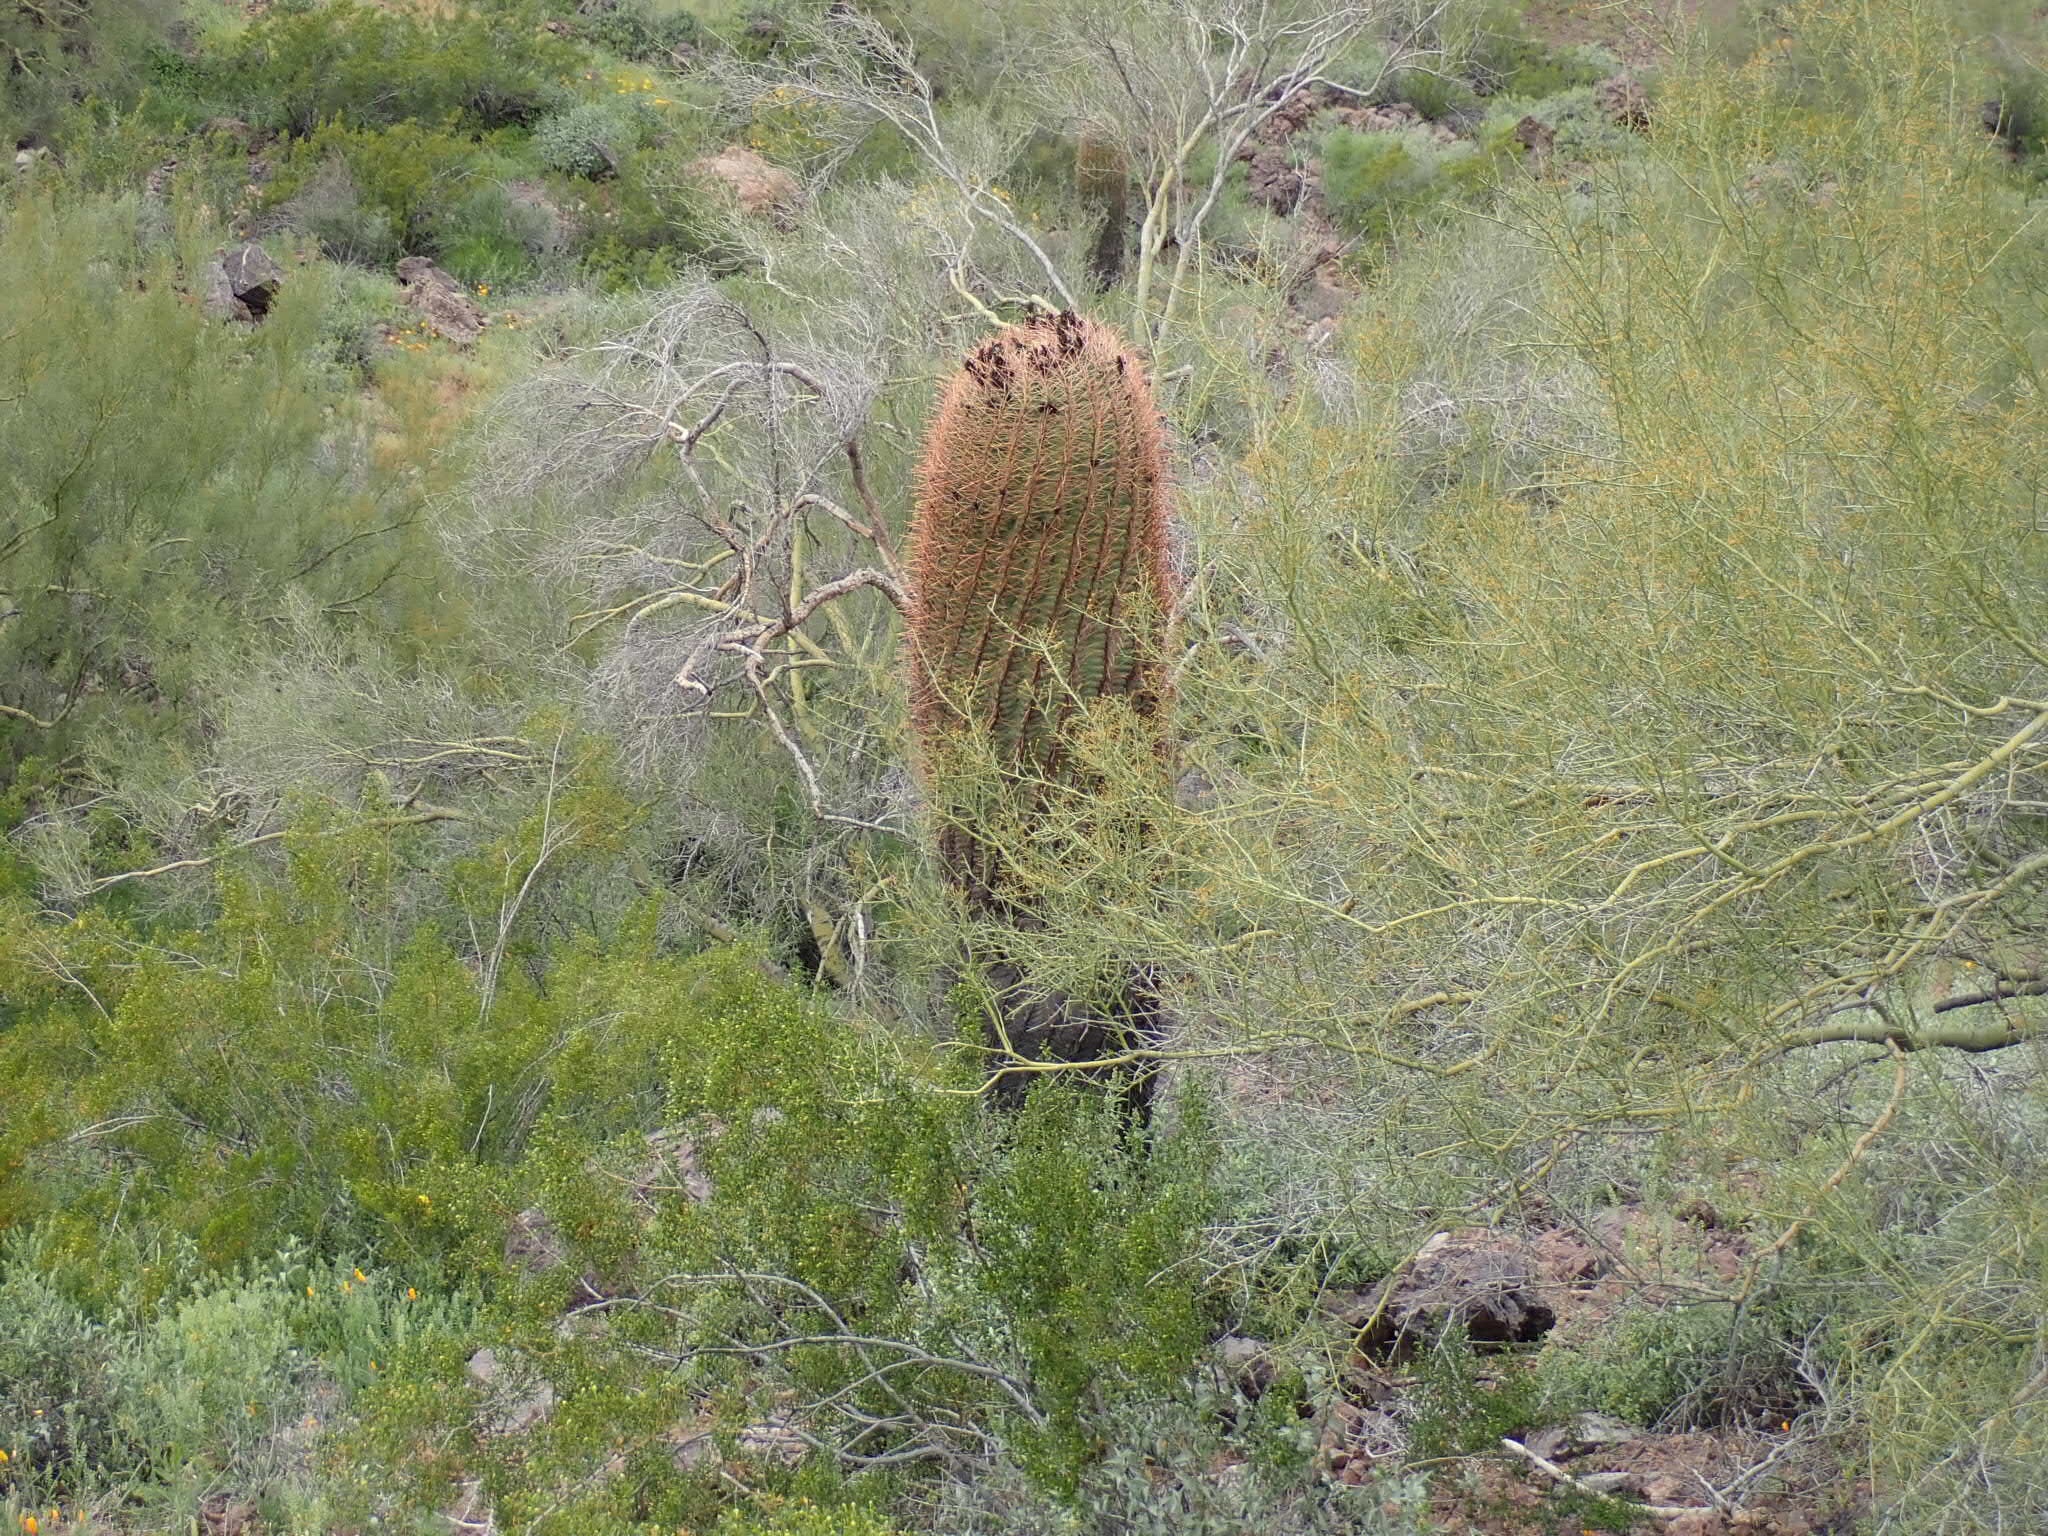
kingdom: Plantae
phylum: Tracheophyta
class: Magnoliopsida
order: Caryophyllales
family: Cactaceae
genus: Ferocactus
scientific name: Ferocactus cylindraceus
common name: California barrel cactus
